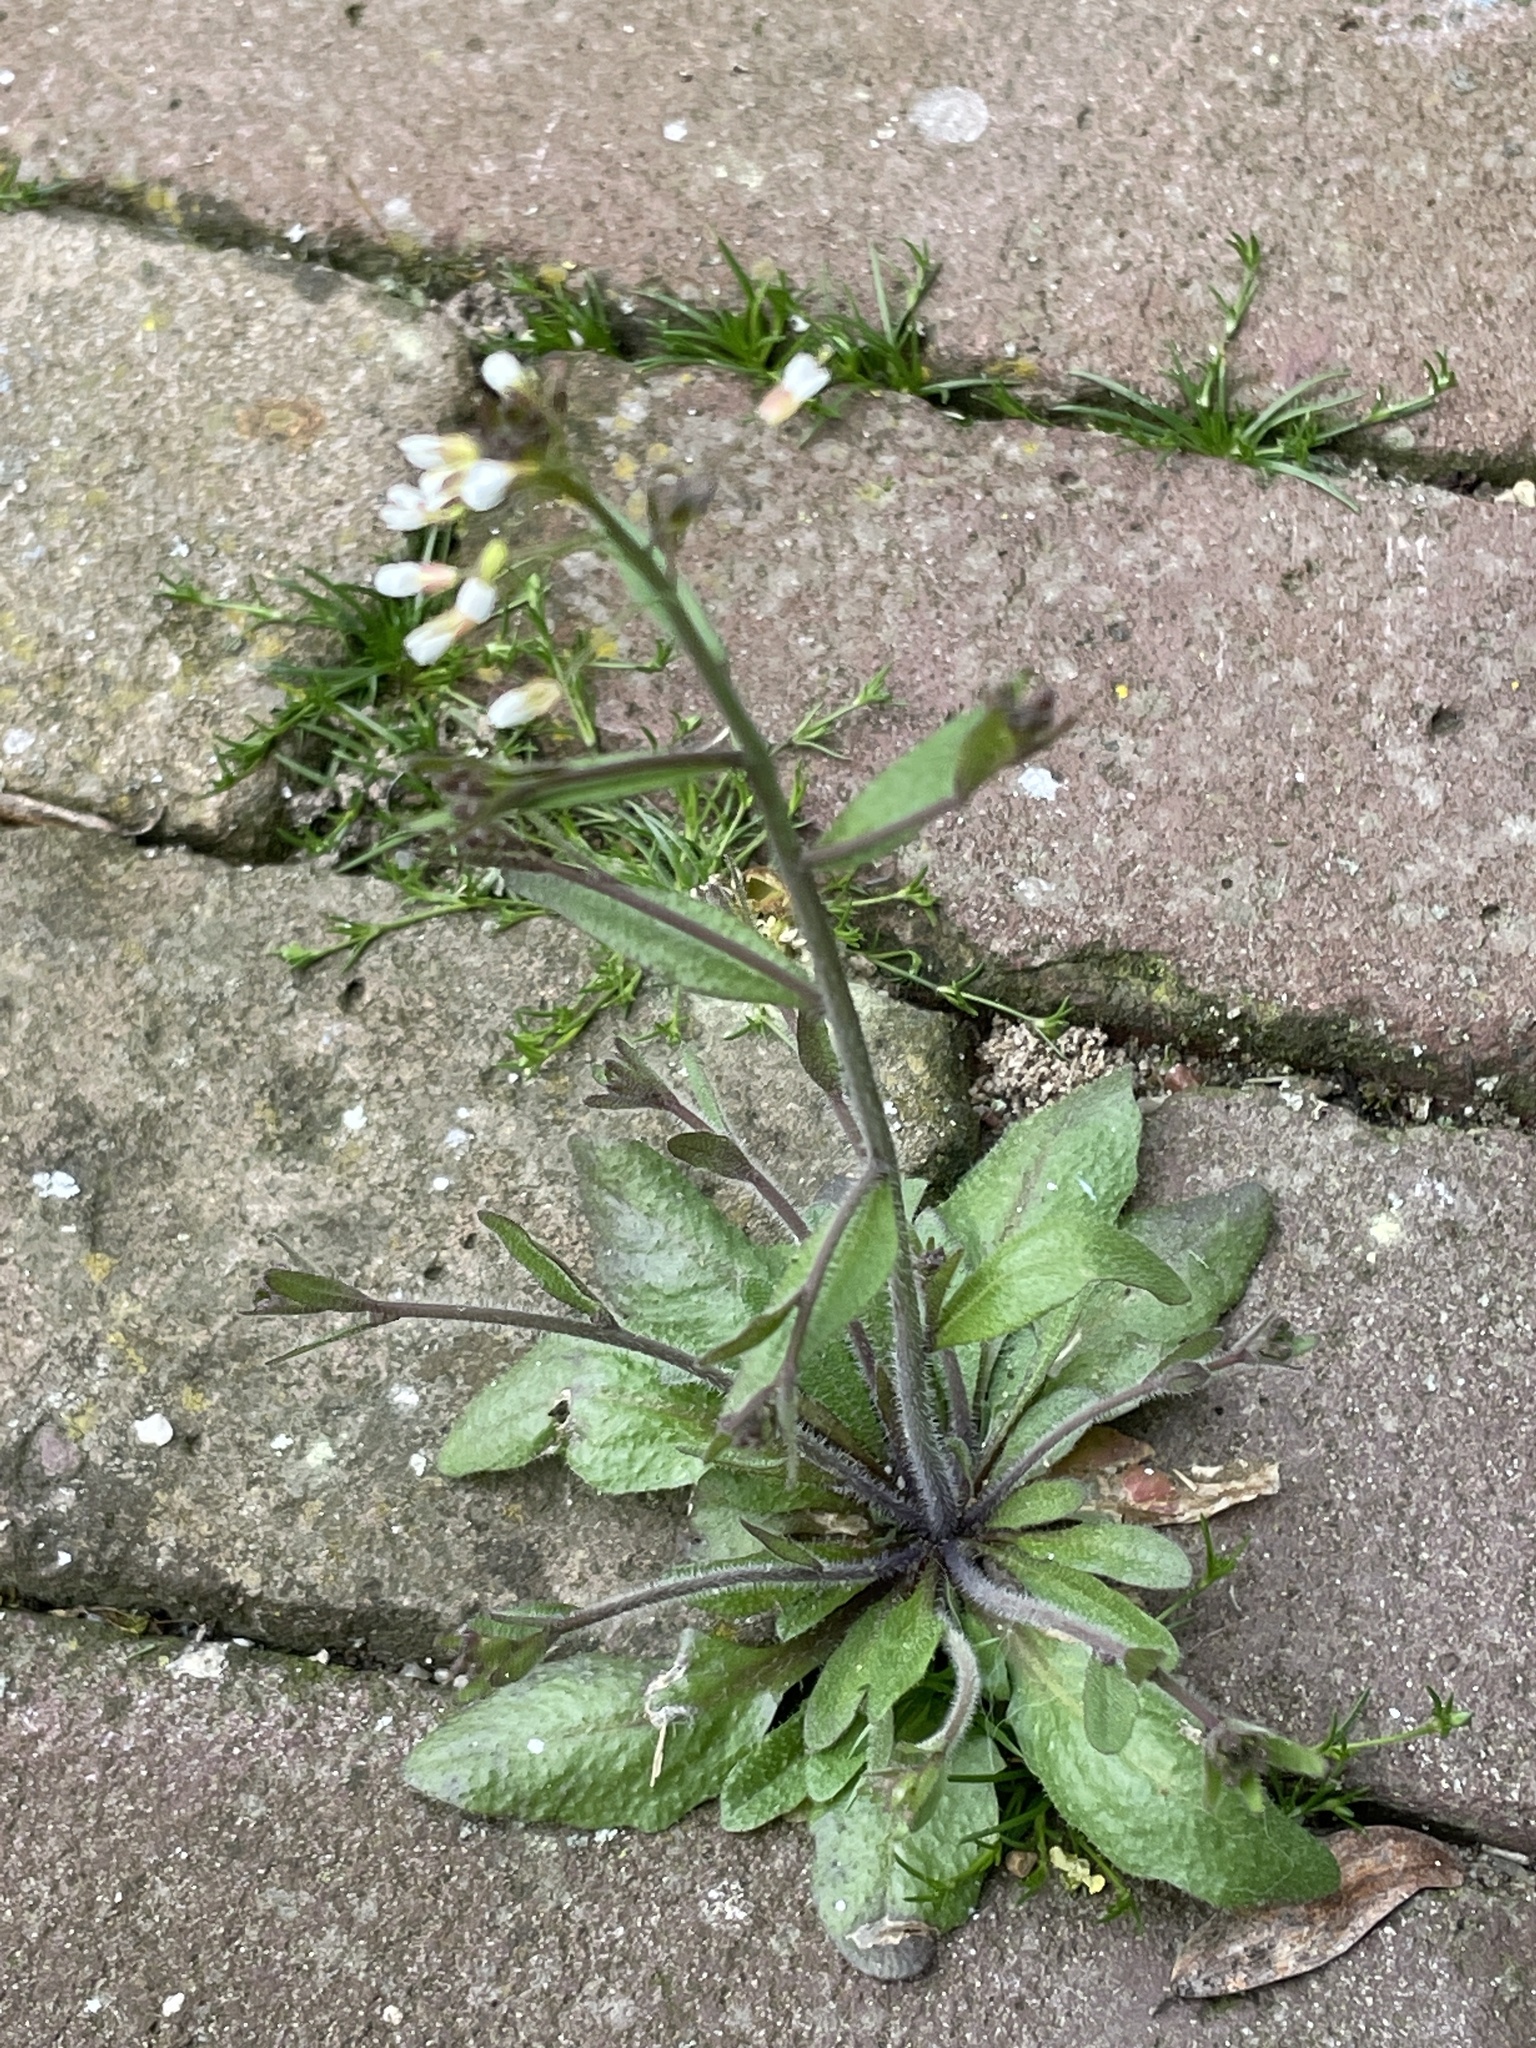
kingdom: Plantae
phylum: Tracheophyta
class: Magnoliopsida
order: Brassicales
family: Brassicaceae
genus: Arabidopsis
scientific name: Arabidopsis thaliana
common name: Thale cress
